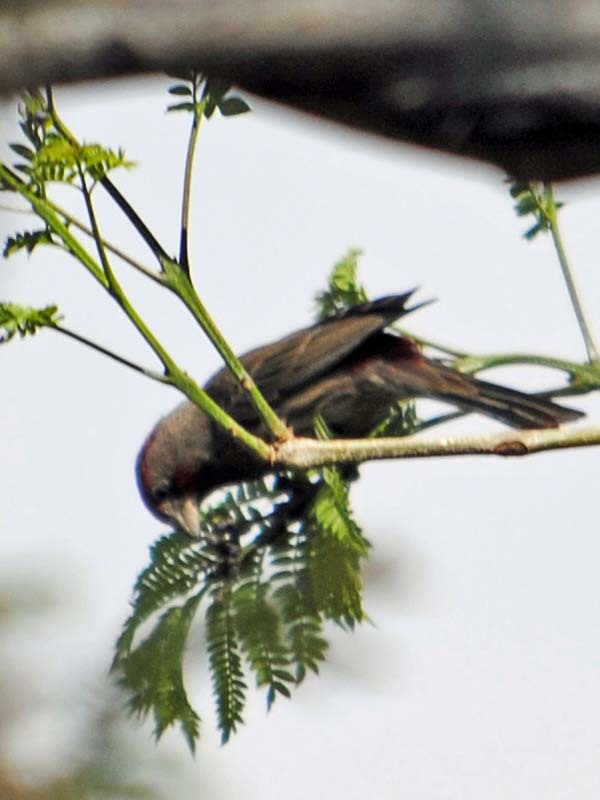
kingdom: Animalia
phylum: Chordata
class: Aves
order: Passeriformes
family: Fringillidae
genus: Haemorhous
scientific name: Haemorhous mexicanus
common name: House finch
